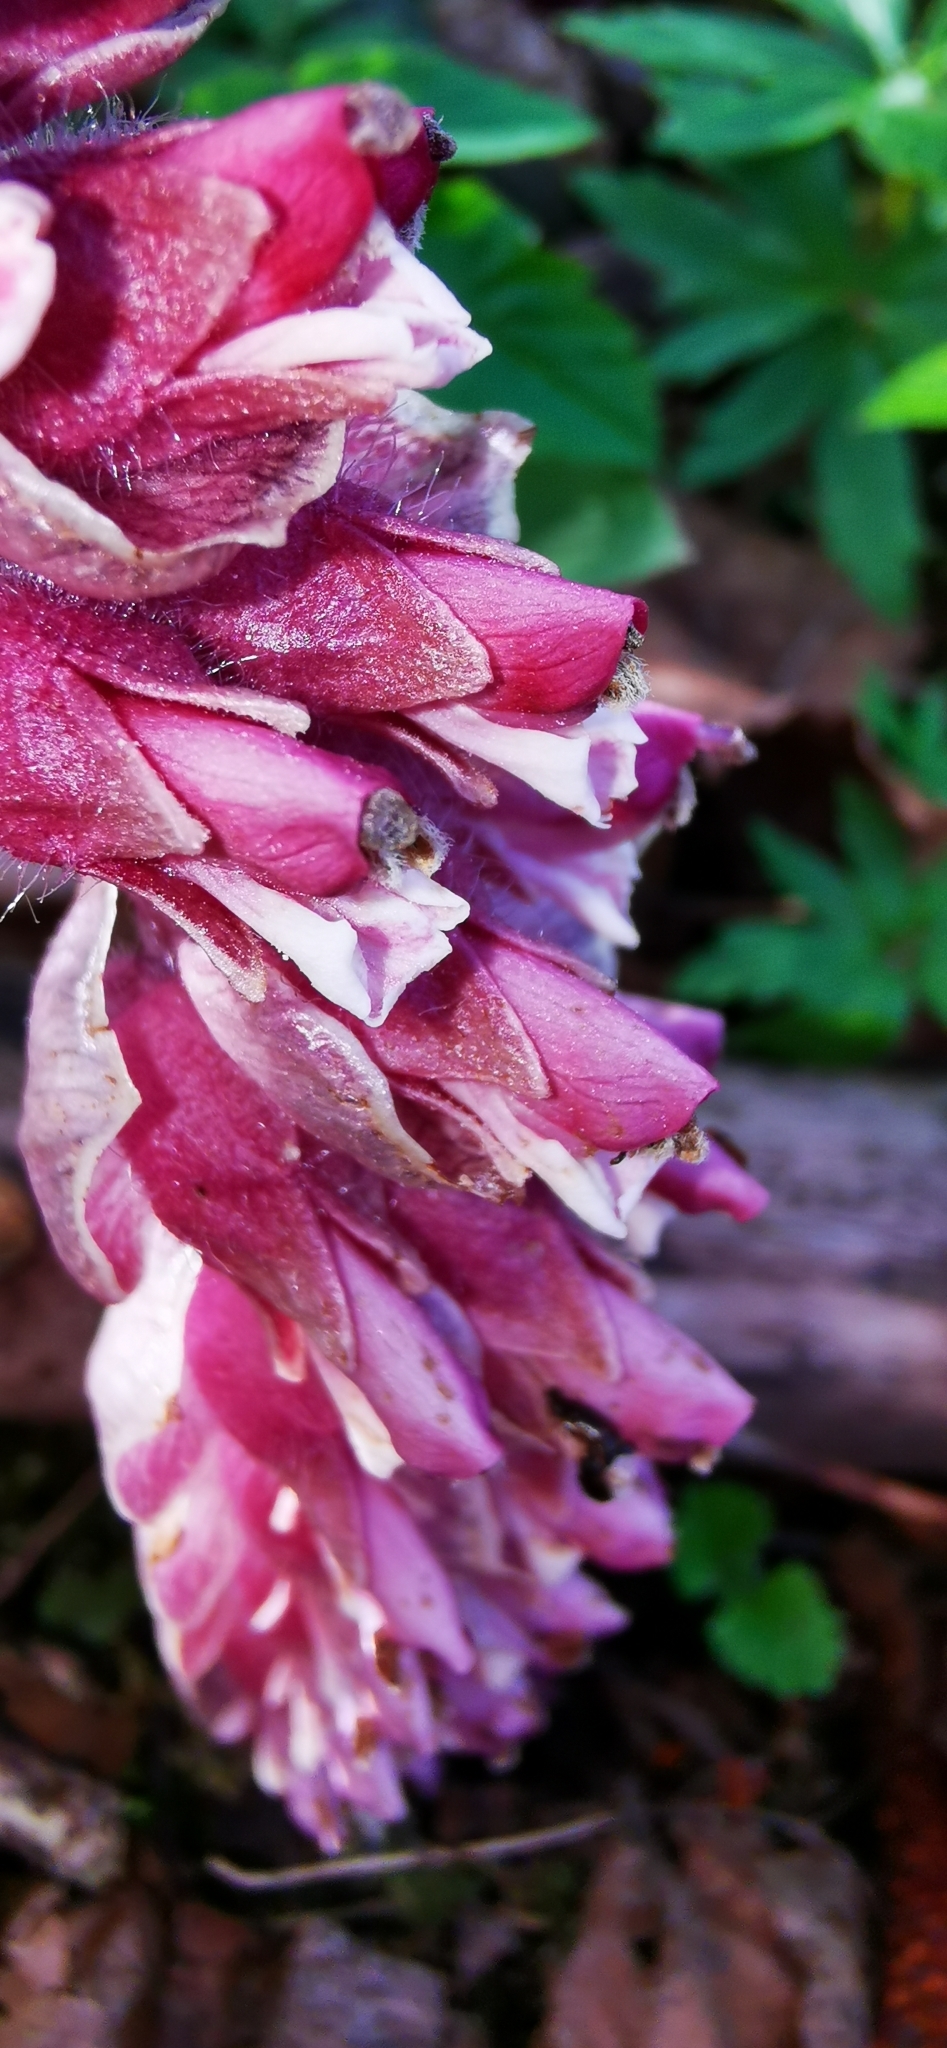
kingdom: Plantae
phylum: Tracheophyta
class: Magnoliopsida
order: Lamiales
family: Orobanchaceae
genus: Lathraea
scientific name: Lathraea squamaria
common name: Toothwort
